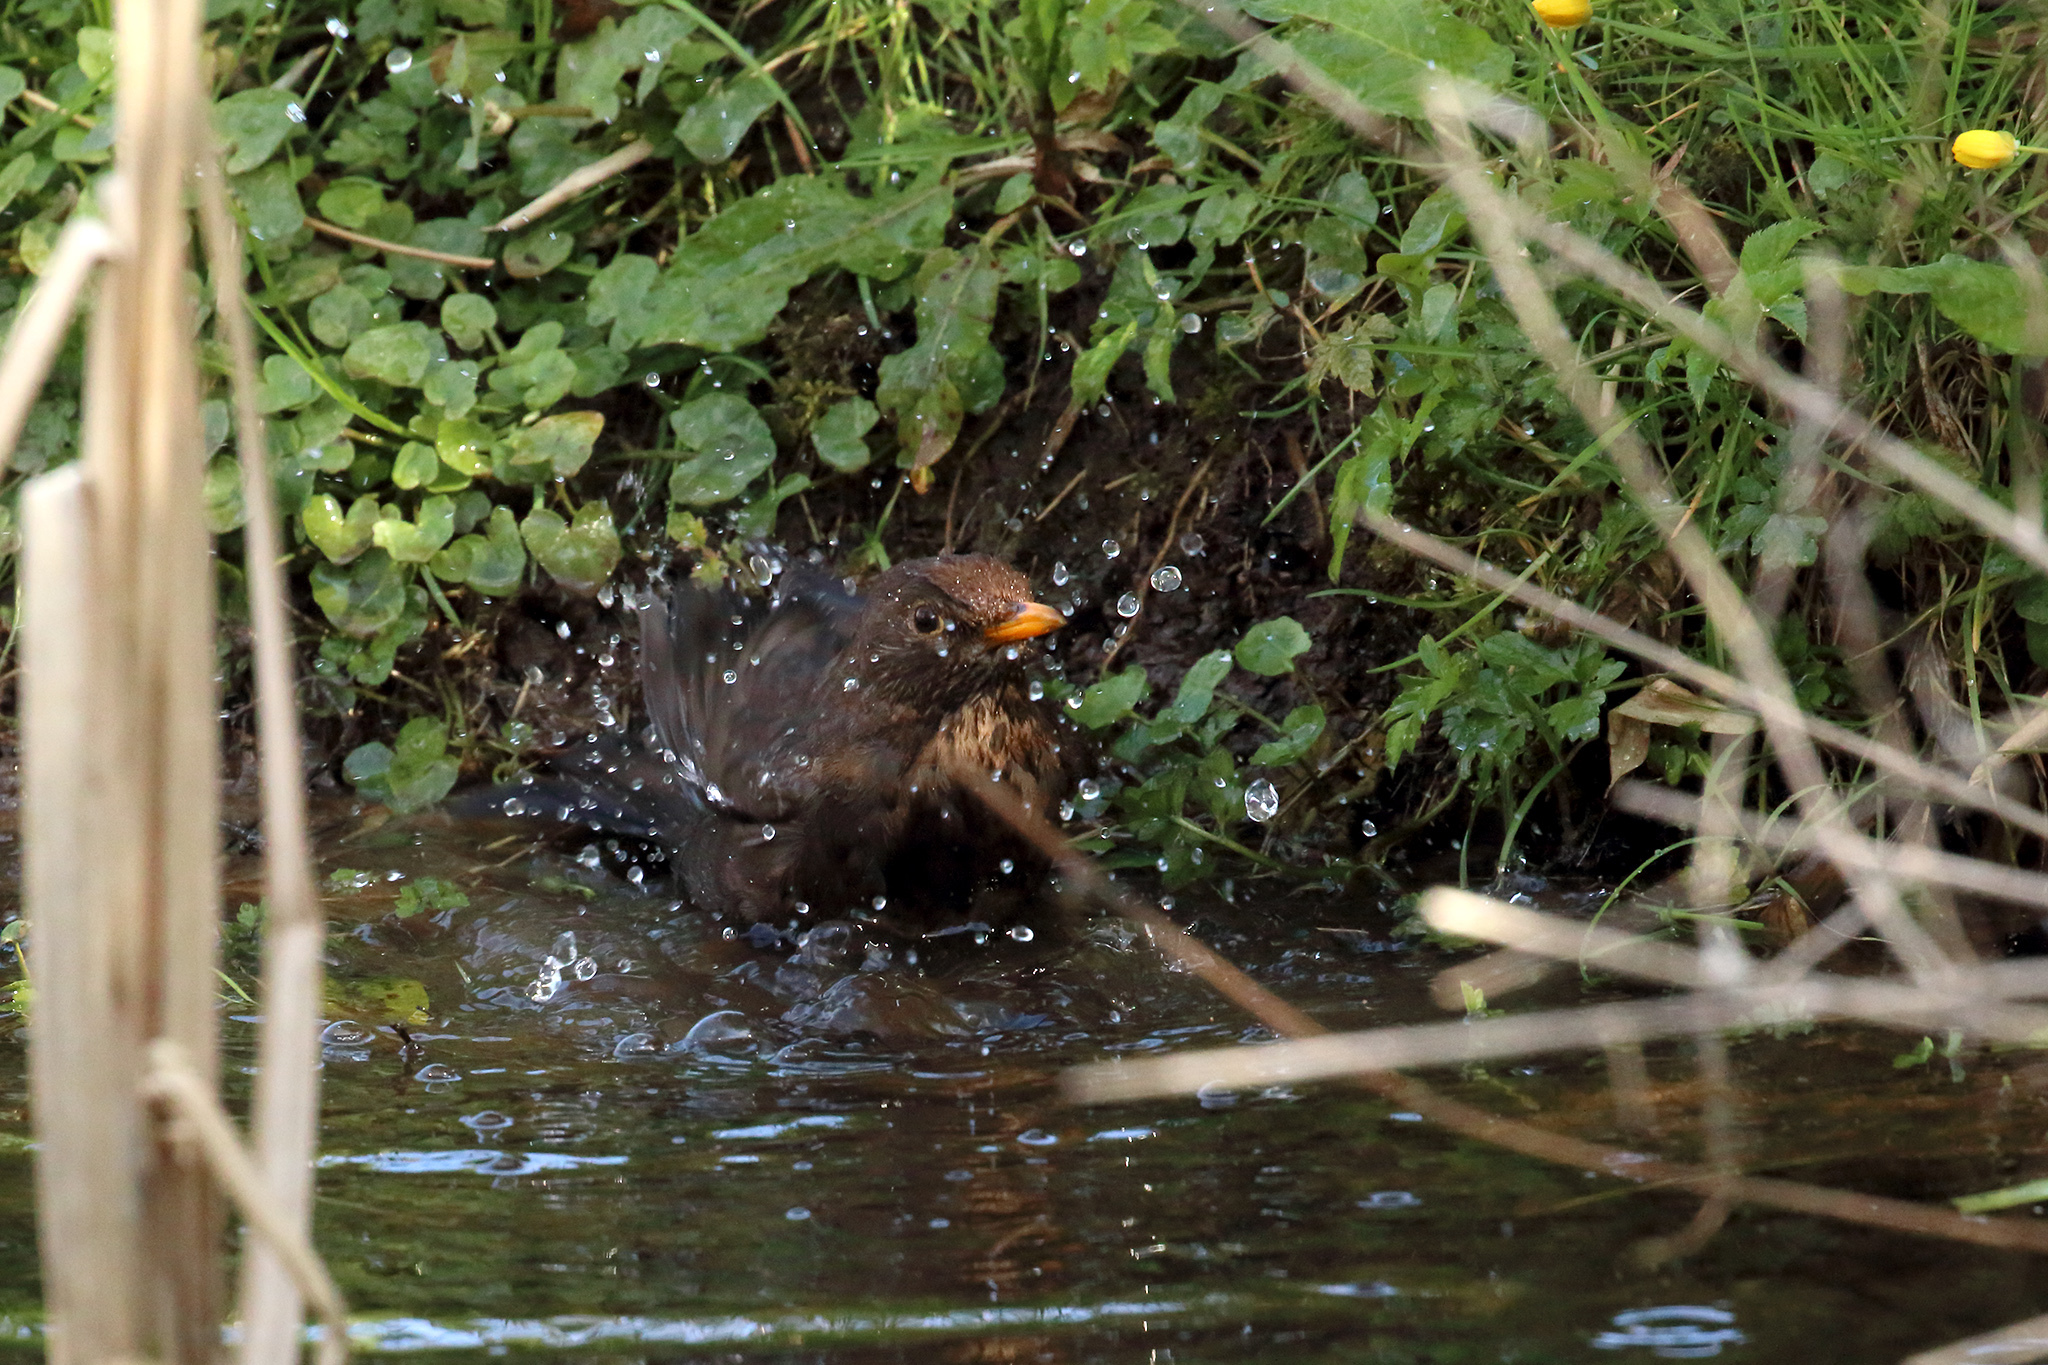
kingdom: Animalia
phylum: Chordata
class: Aves
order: Passeriformes
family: Turdidae
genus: Turdus
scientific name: Turdus merula
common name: Common blackbird
